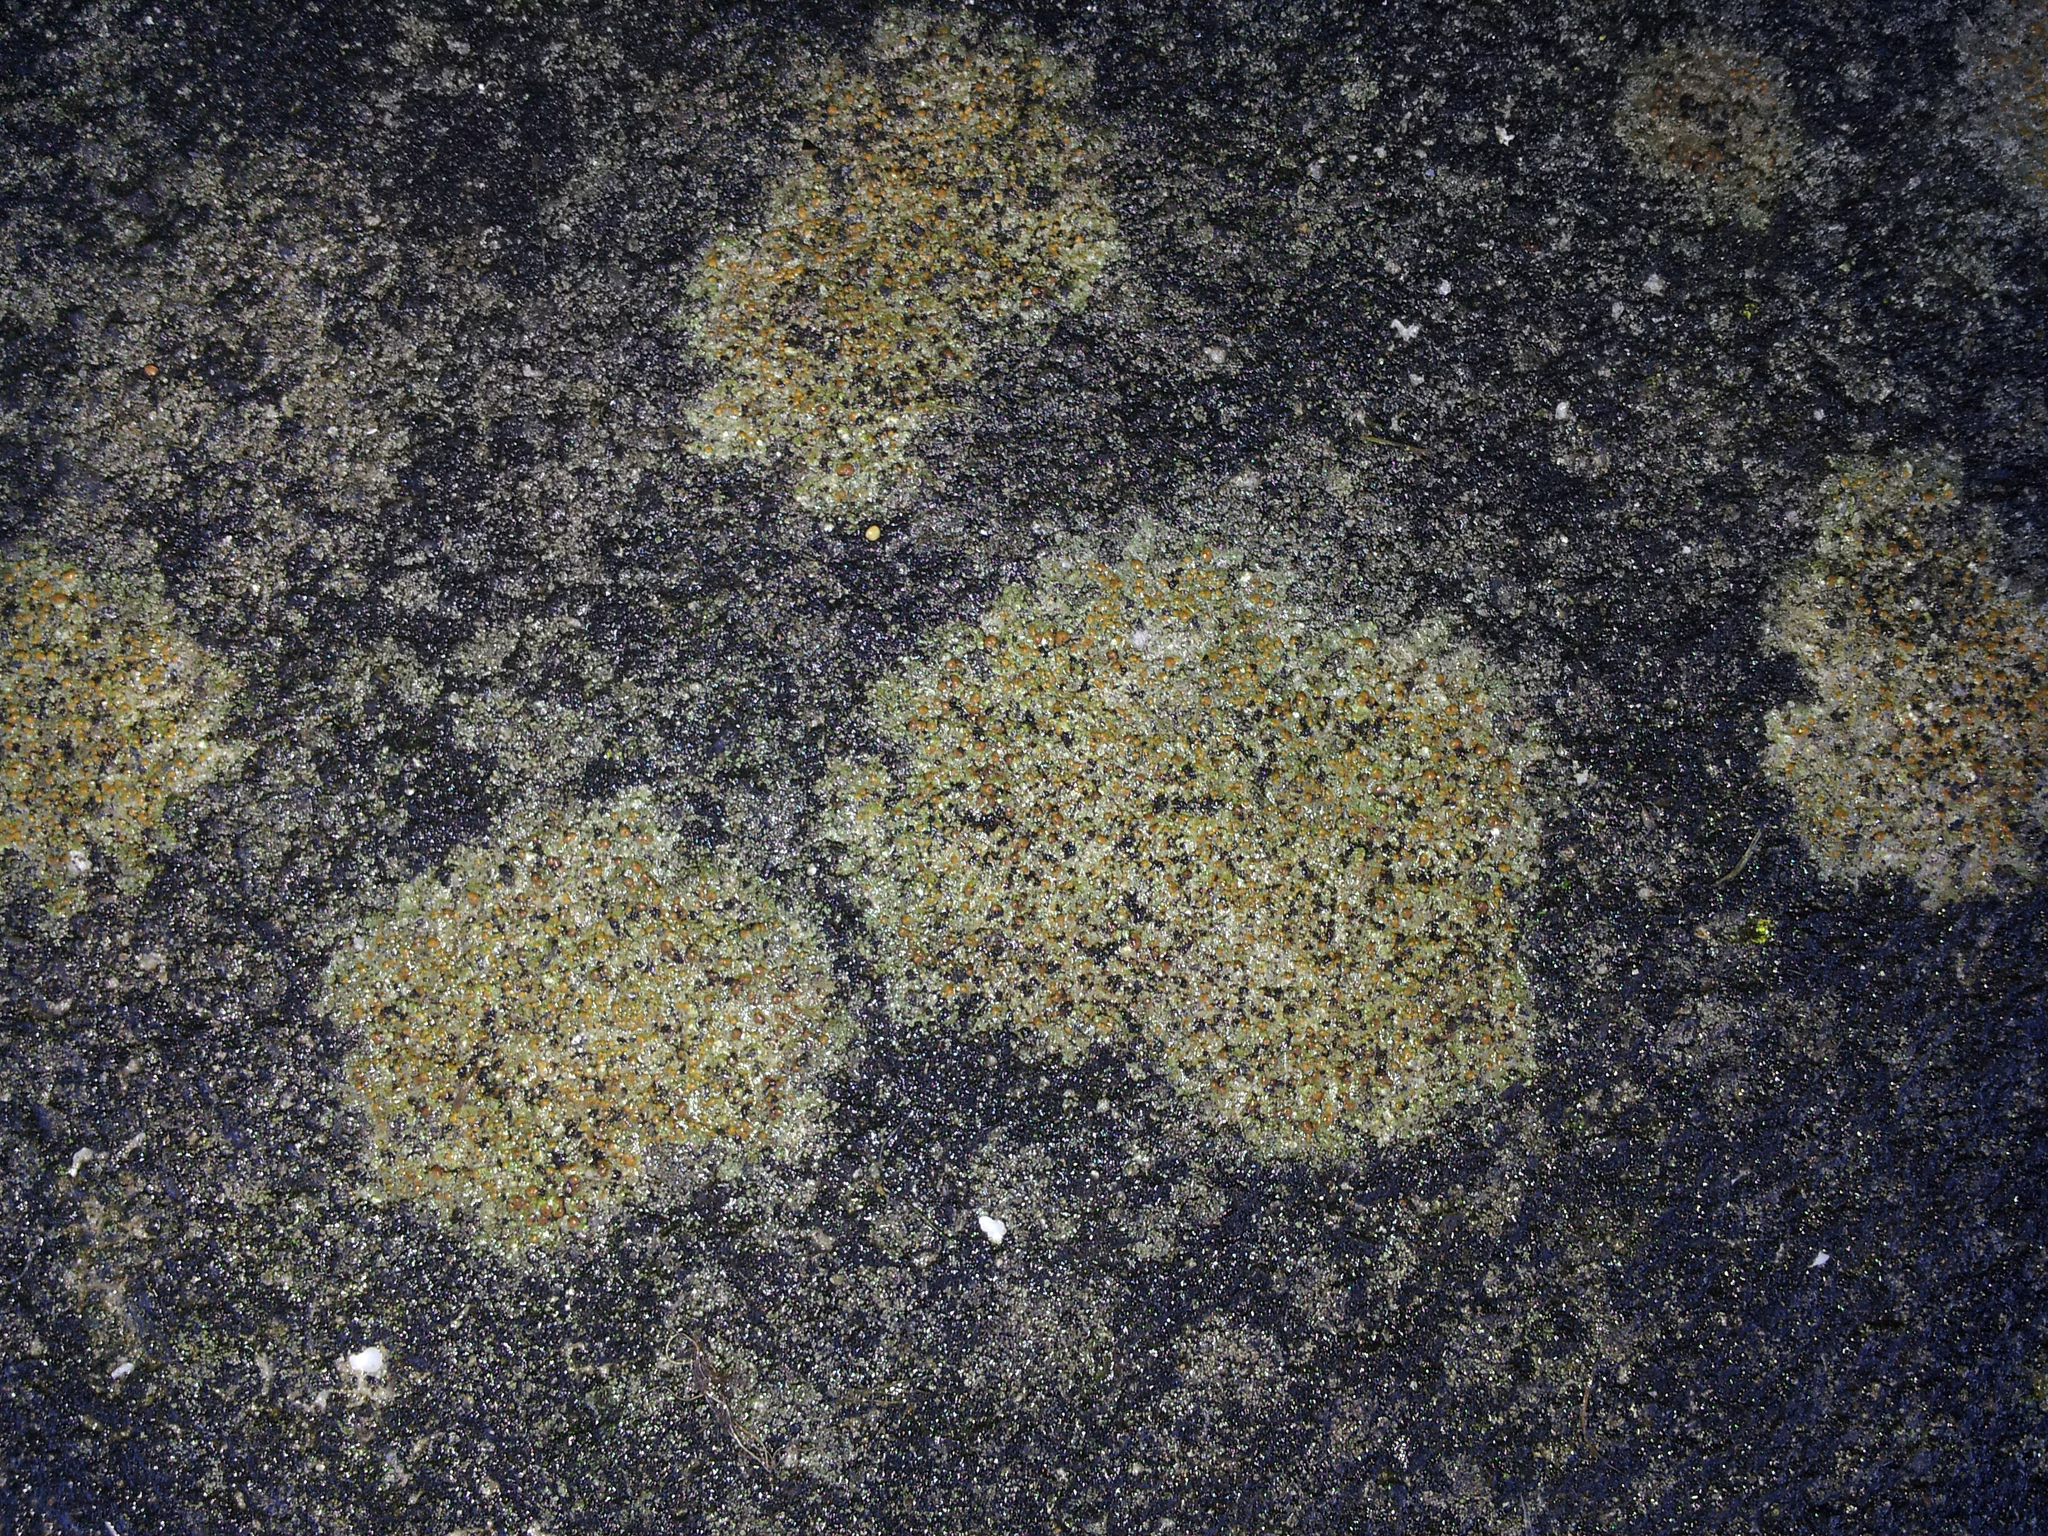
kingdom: Fungi
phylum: Ascomycota
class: Lecanoromycetes
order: Lecanorales
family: Psoraceae
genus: Protoblastenia
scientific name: Protoblastenia rupestris
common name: Chewing gum lichen
